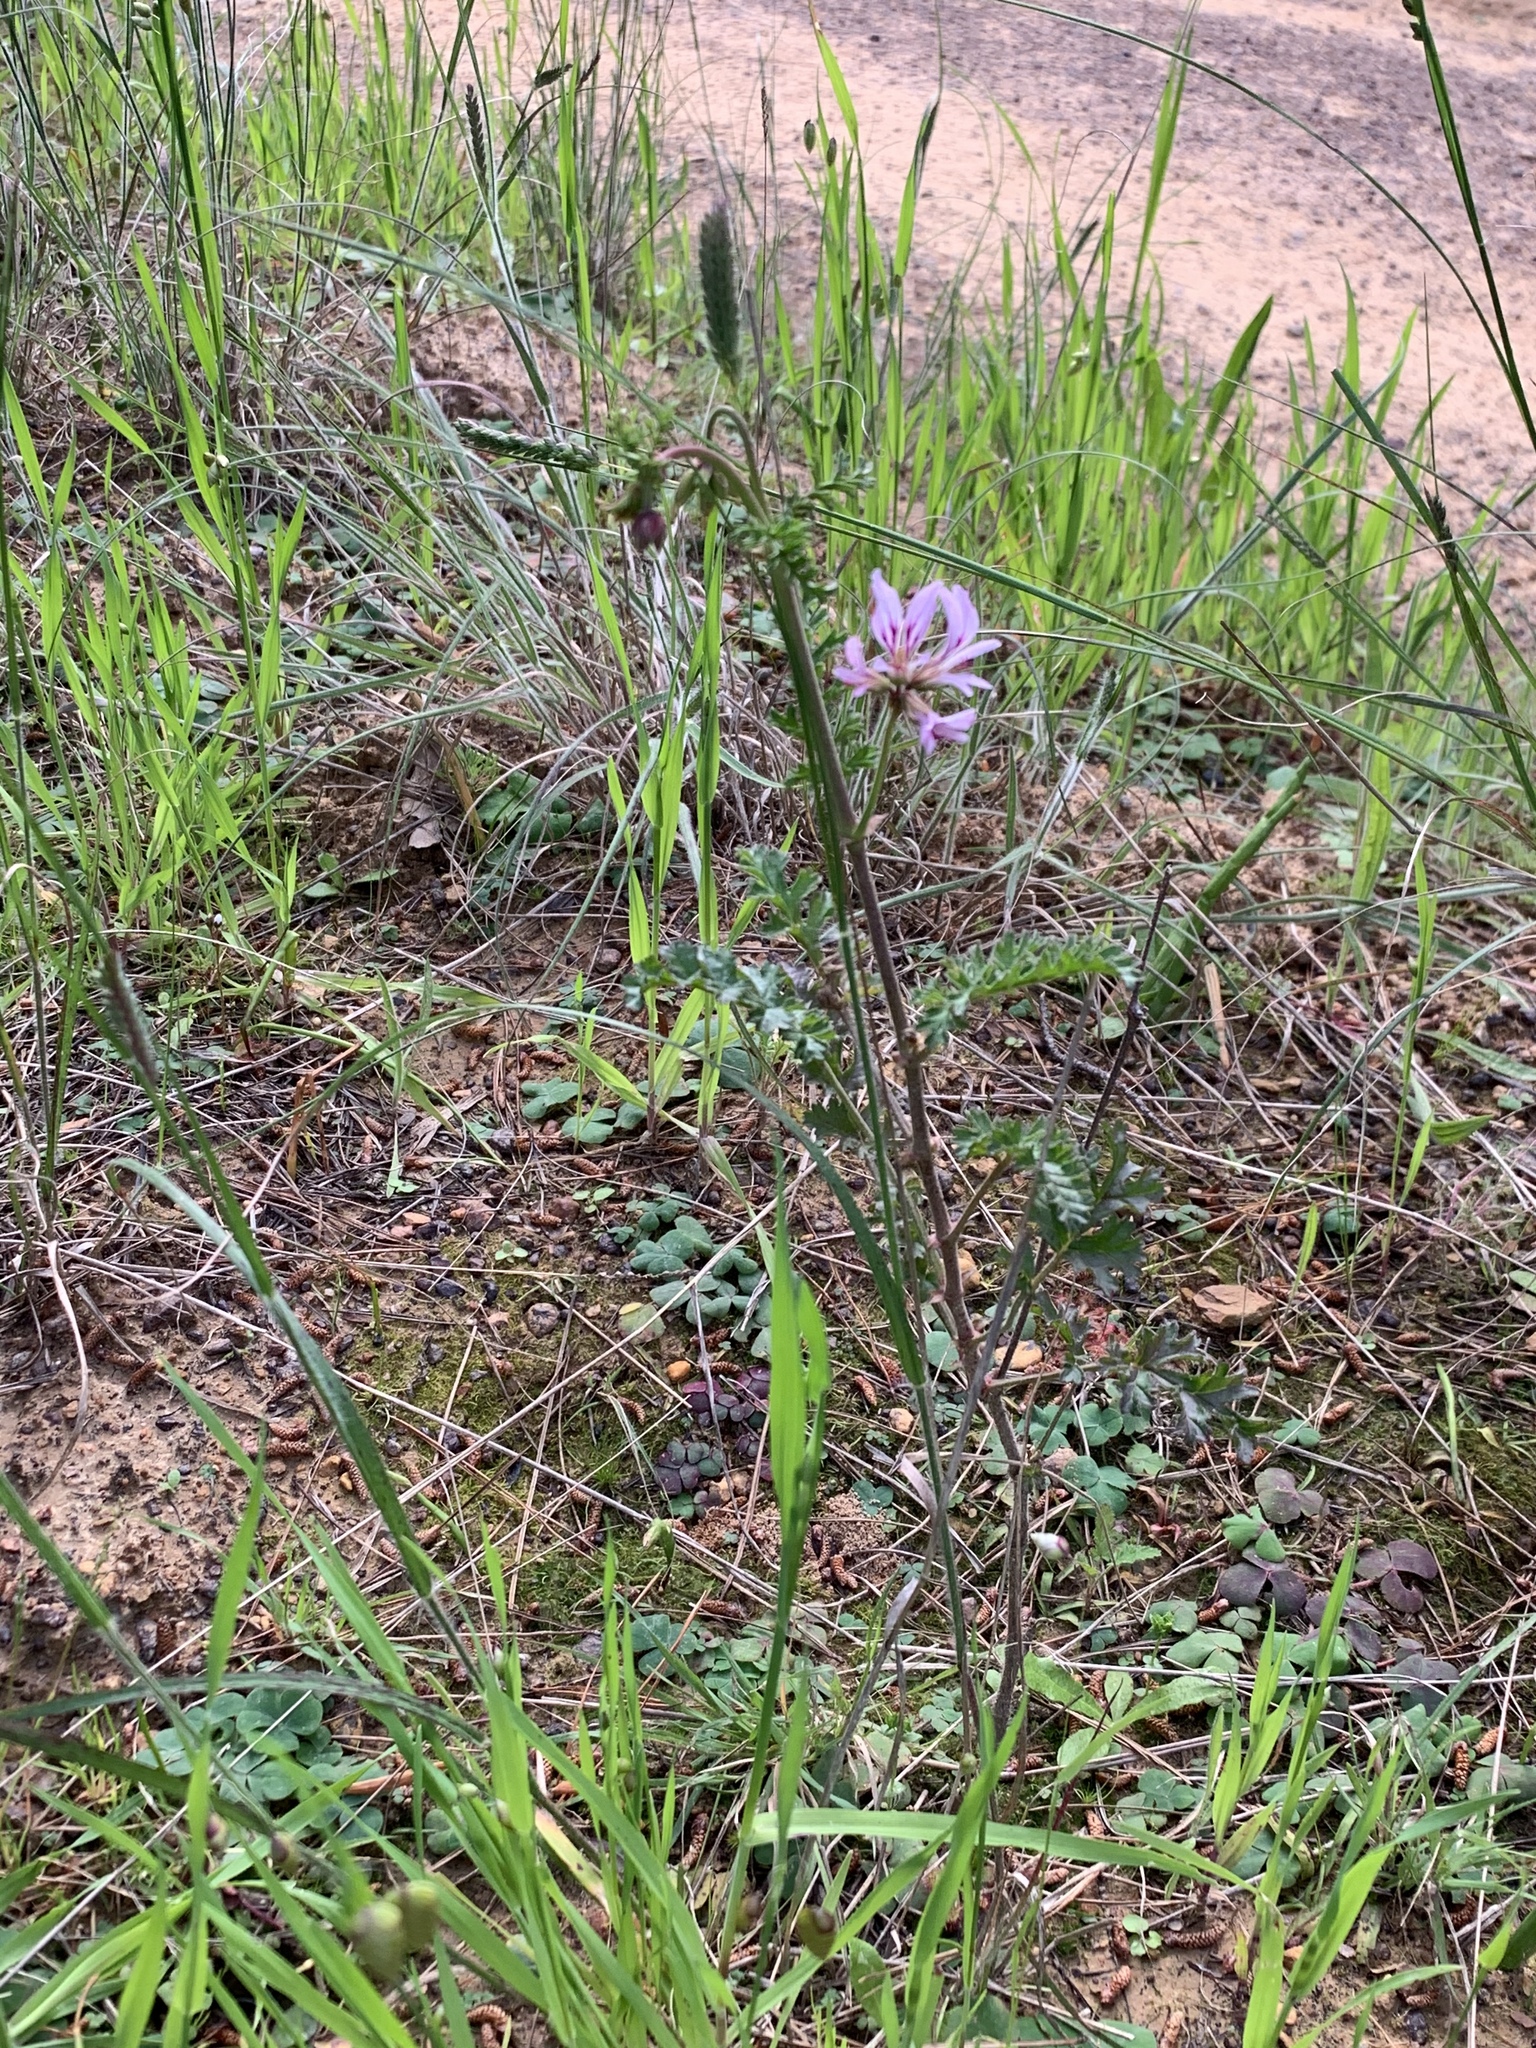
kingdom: Plantae
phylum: Tracheophyta
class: Magnoliopsida
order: Geraniales
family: Geraniaceae
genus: Pelargonium
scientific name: Pelargonium myrrhifolium
